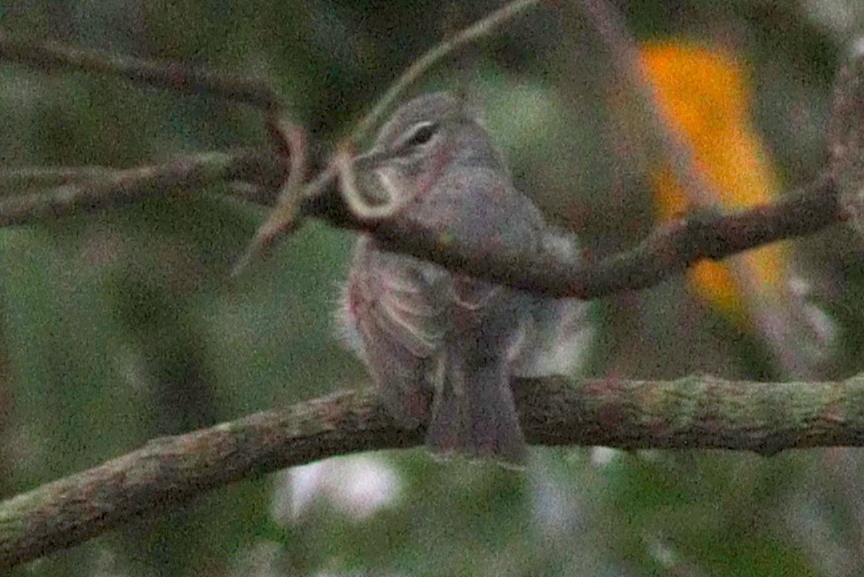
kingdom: Animalia
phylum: Chordata
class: Aves
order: Passeriformes
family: Muscicapidae
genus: Muscicapa
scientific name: Muscicapa caerulescens
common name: Ashy flycatcher
